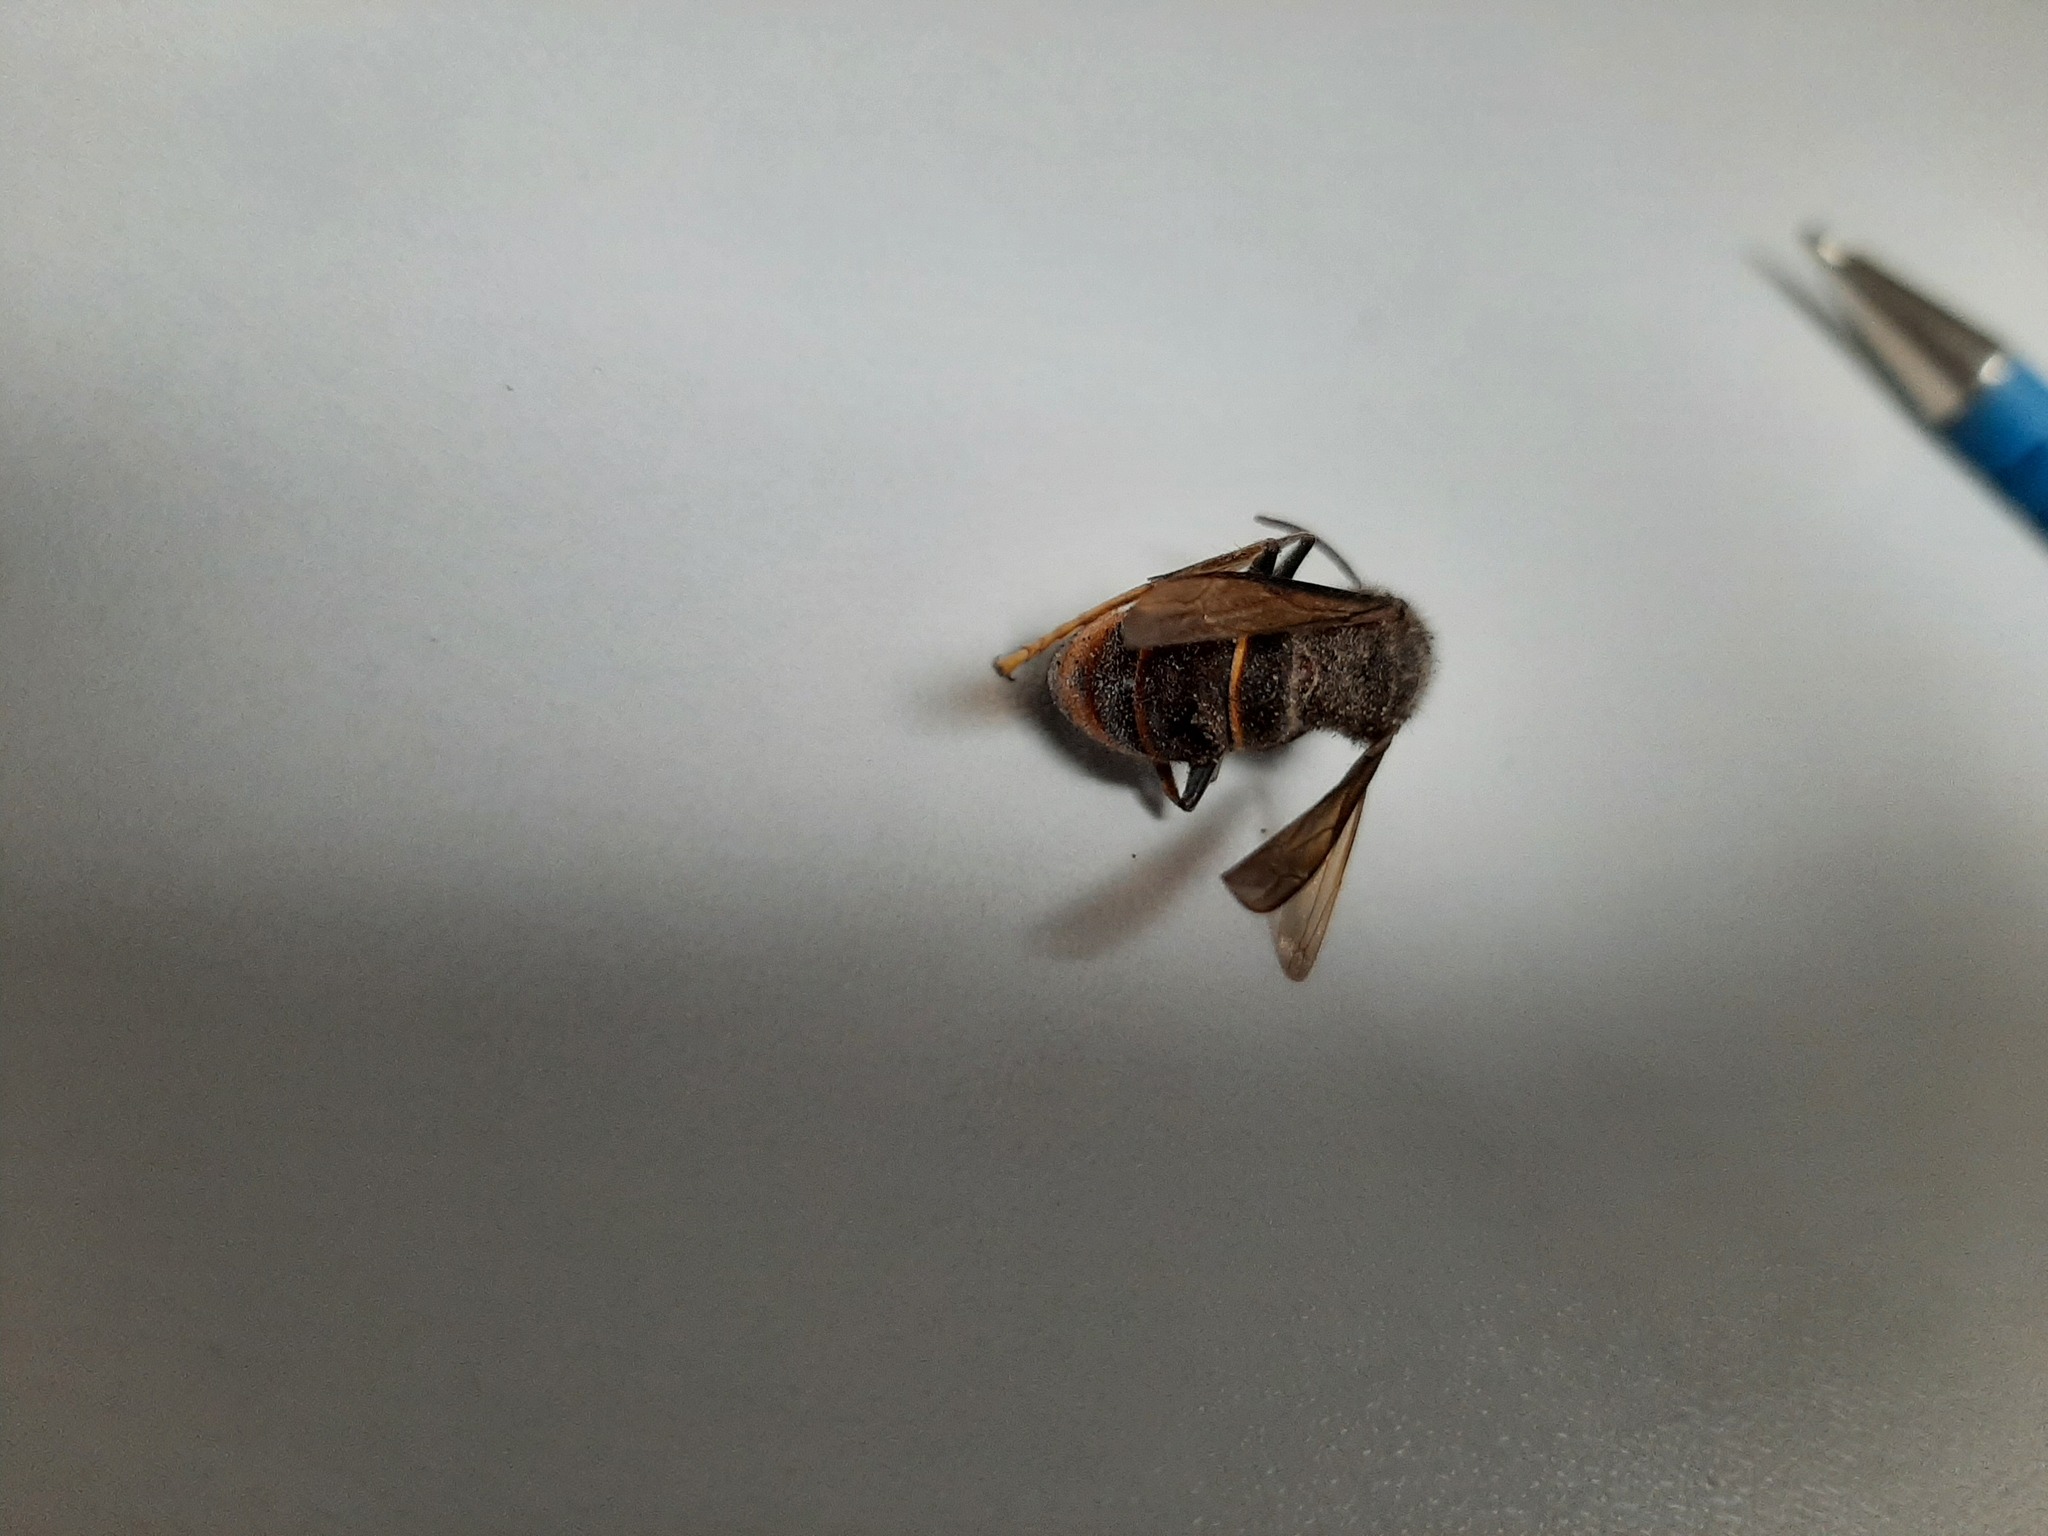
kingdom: Animalia
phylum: Arthropoda
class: Insecta
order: Hymenoptera
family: Vespidae
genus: Vespa
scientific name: Vespa velutina
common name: Asian hornet
